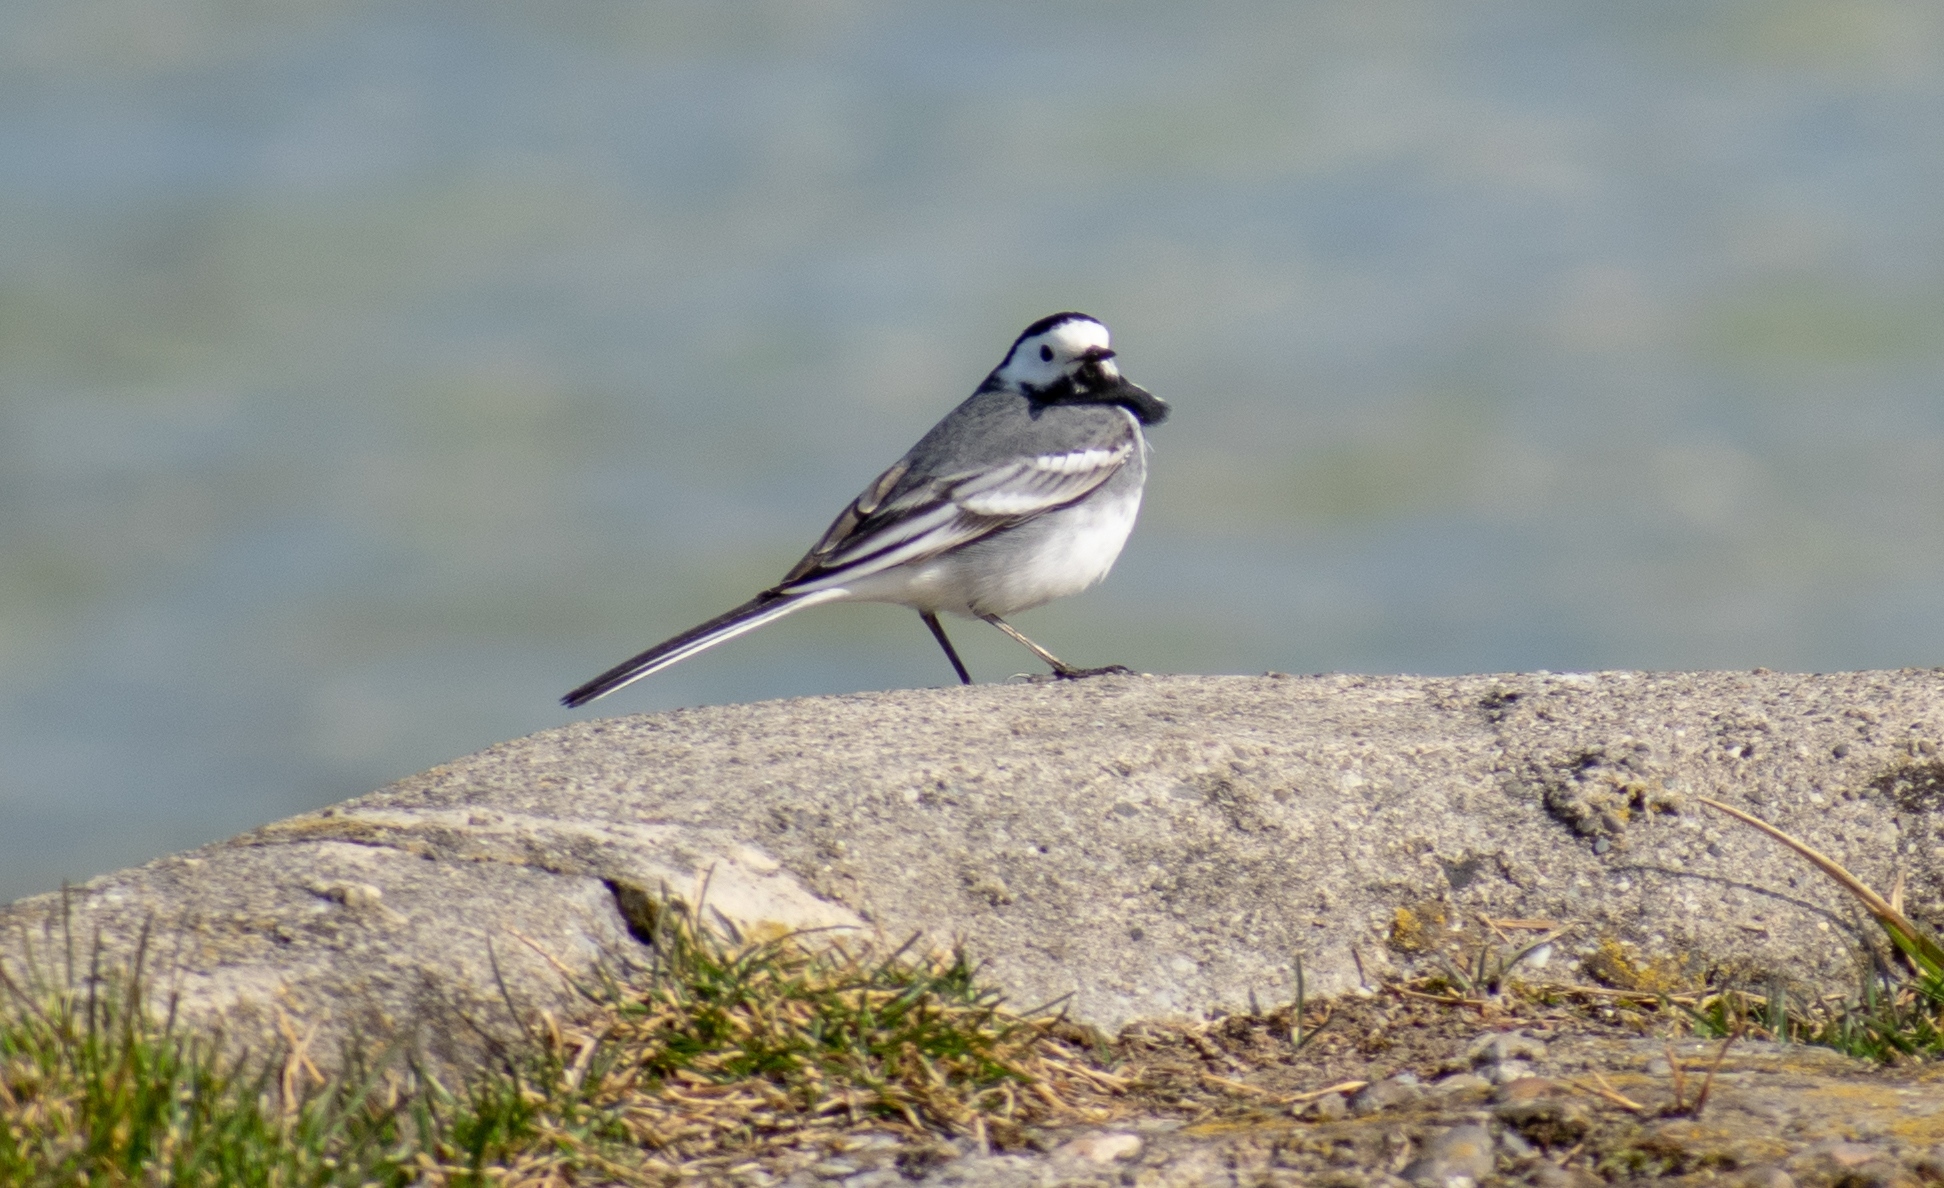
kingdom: Animalia
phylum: Chordata
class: Aves
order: Passeriformes
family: Motacillidae
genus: Motacilla
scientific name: Motacilla alba
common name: White wagtail
